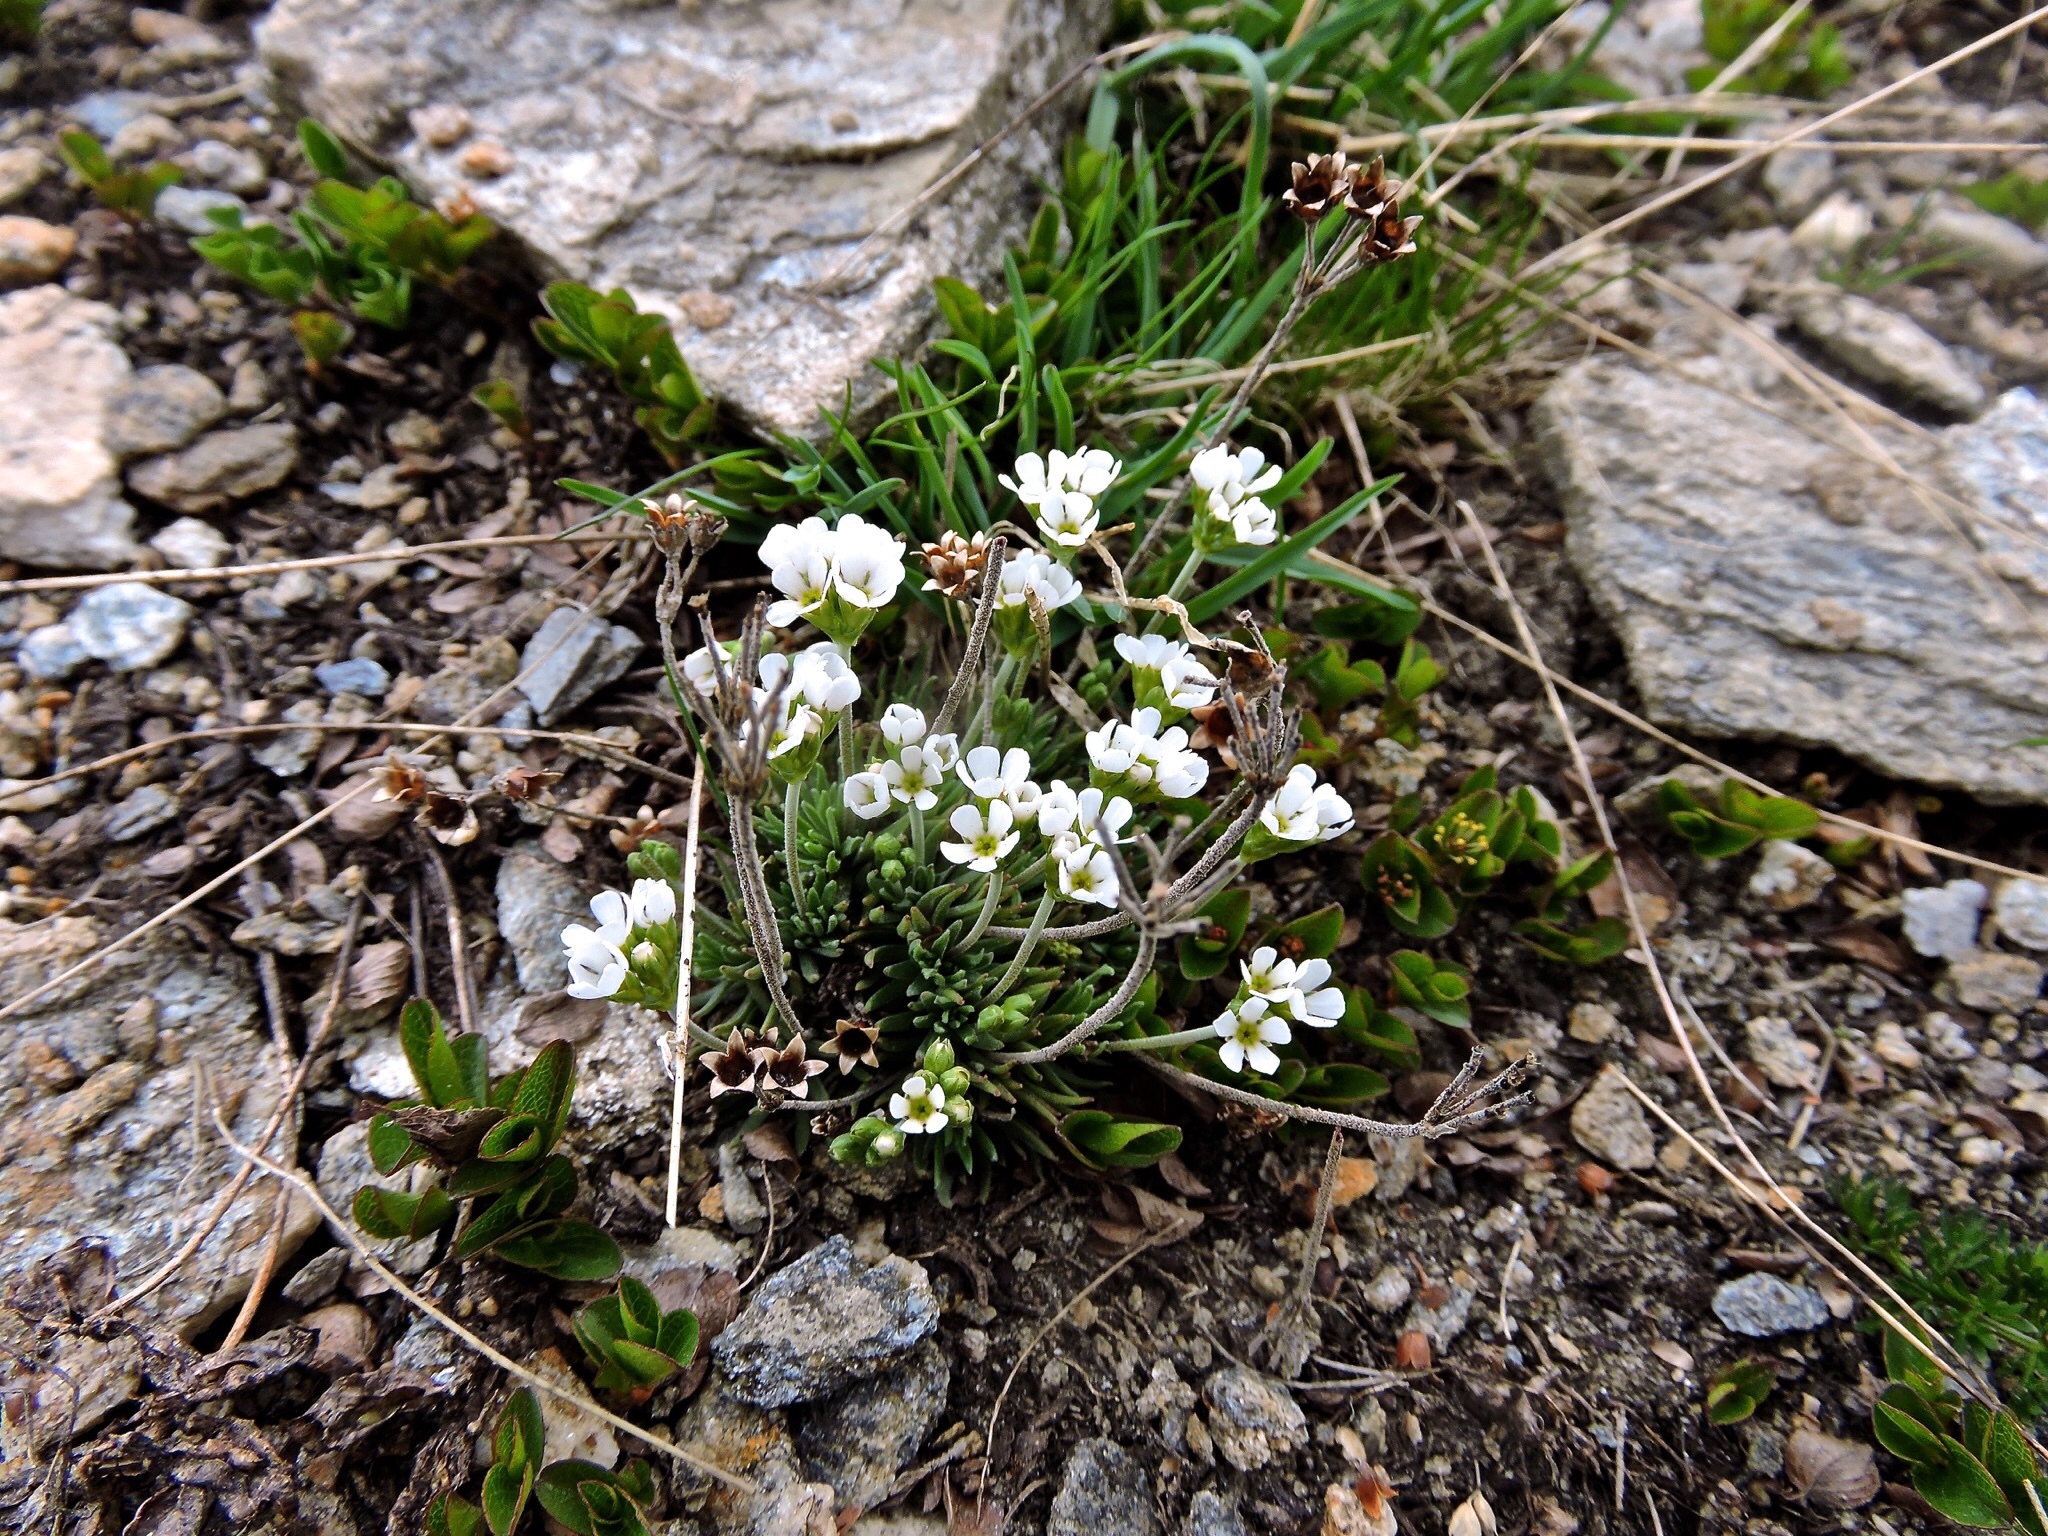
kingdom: Plantae
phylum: Tracheophyta
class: Magnoliopsida
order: Ericales
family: Primulaceae
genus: Androsace
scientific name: Androsace adfinis
